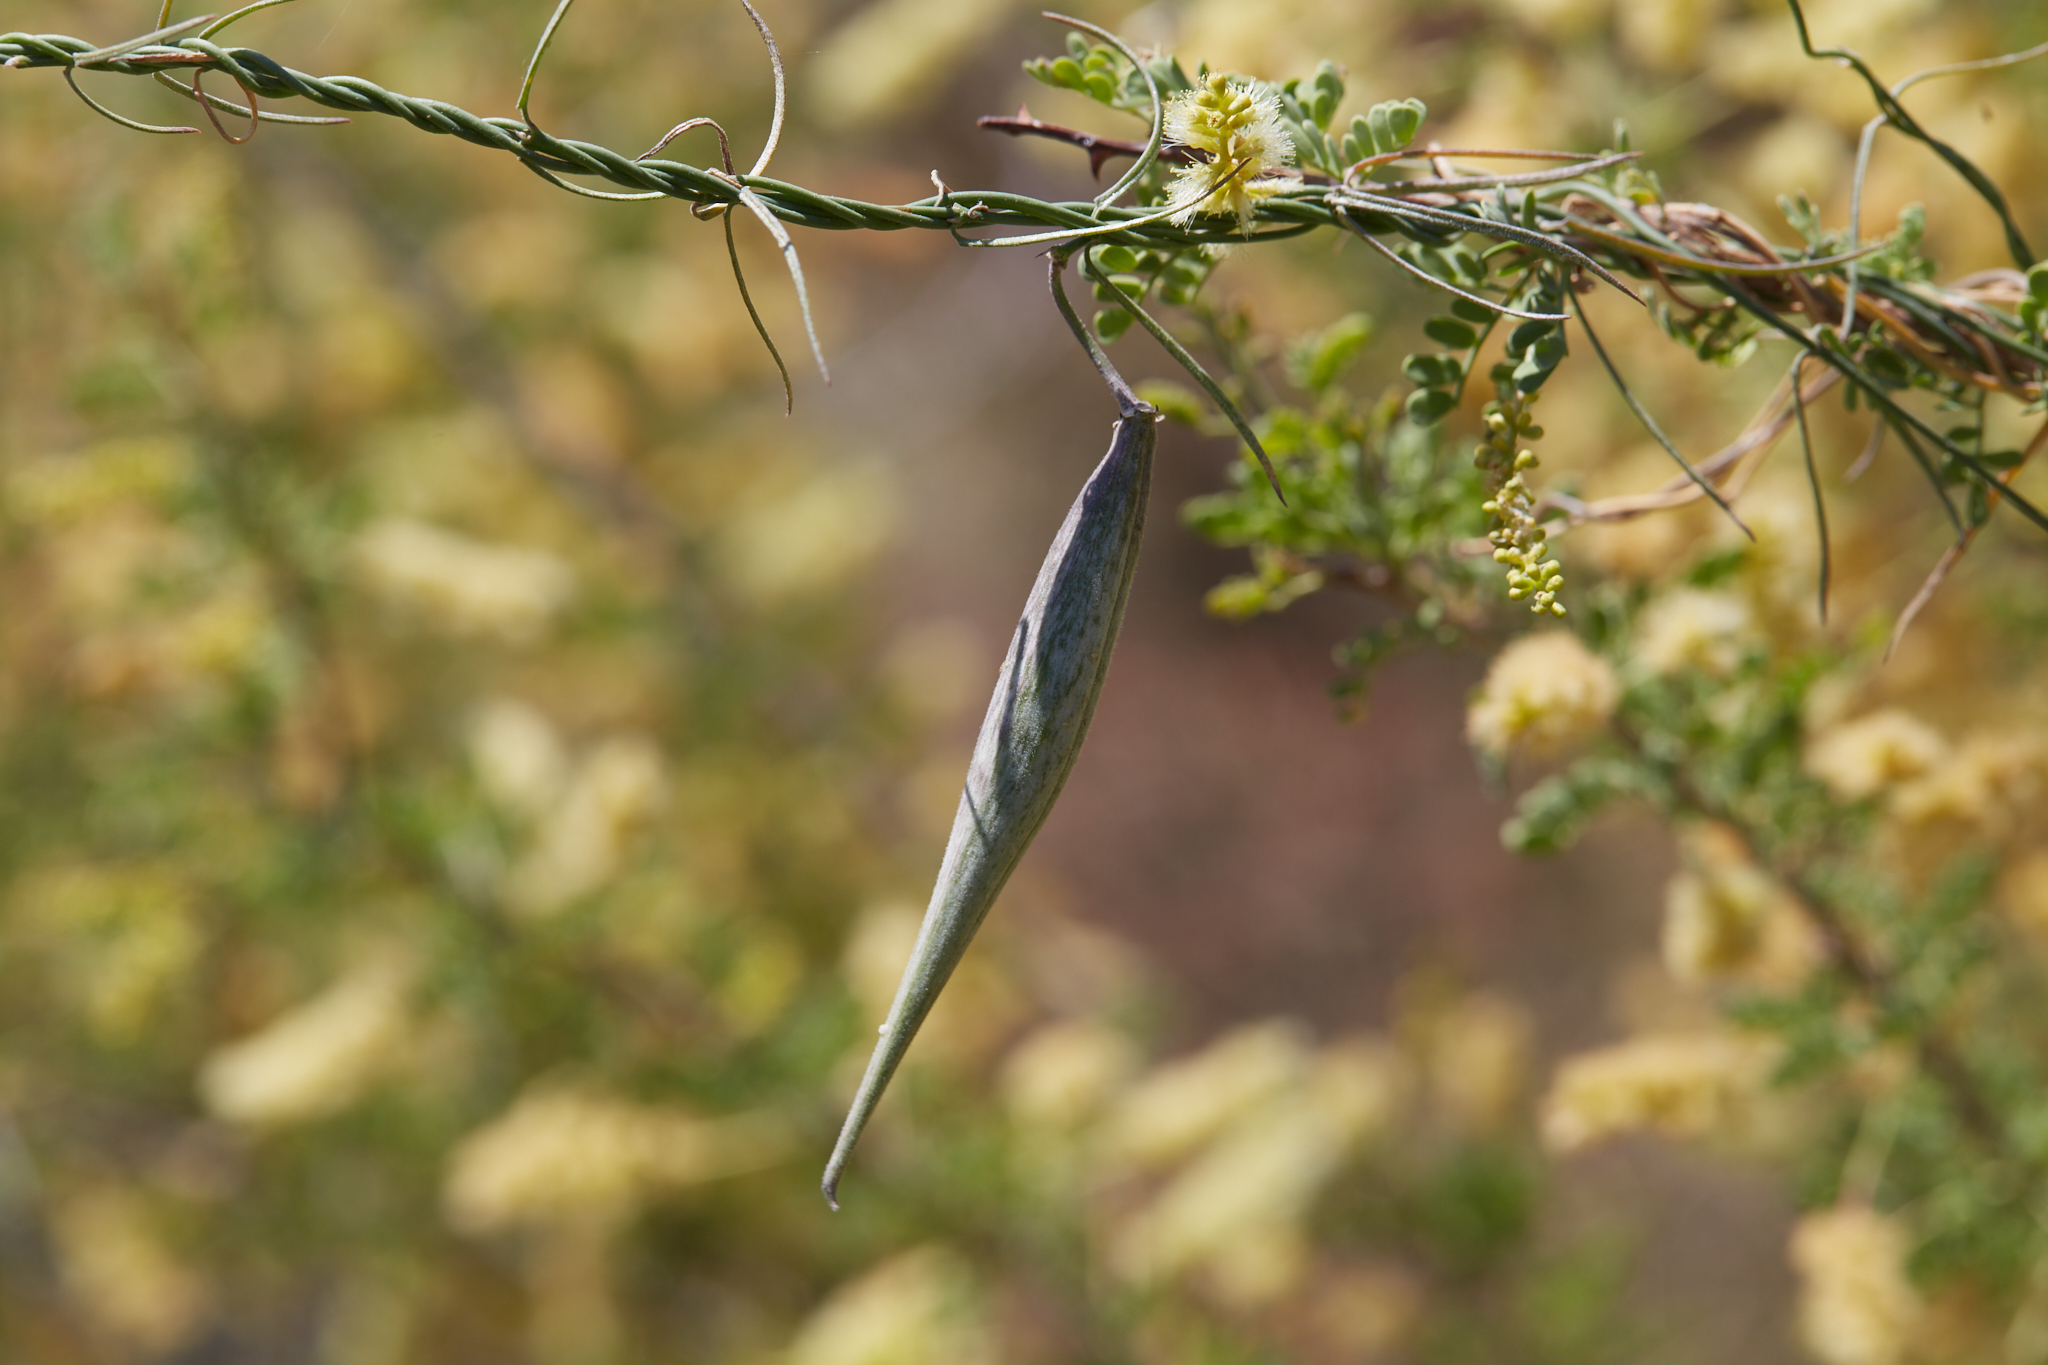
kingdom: Plantae
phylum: Tracheophyta
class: Magnoliopsida
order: Gentianales
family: Apocynaceae
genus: Funastrum
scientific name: Funastrum heterophyllum
